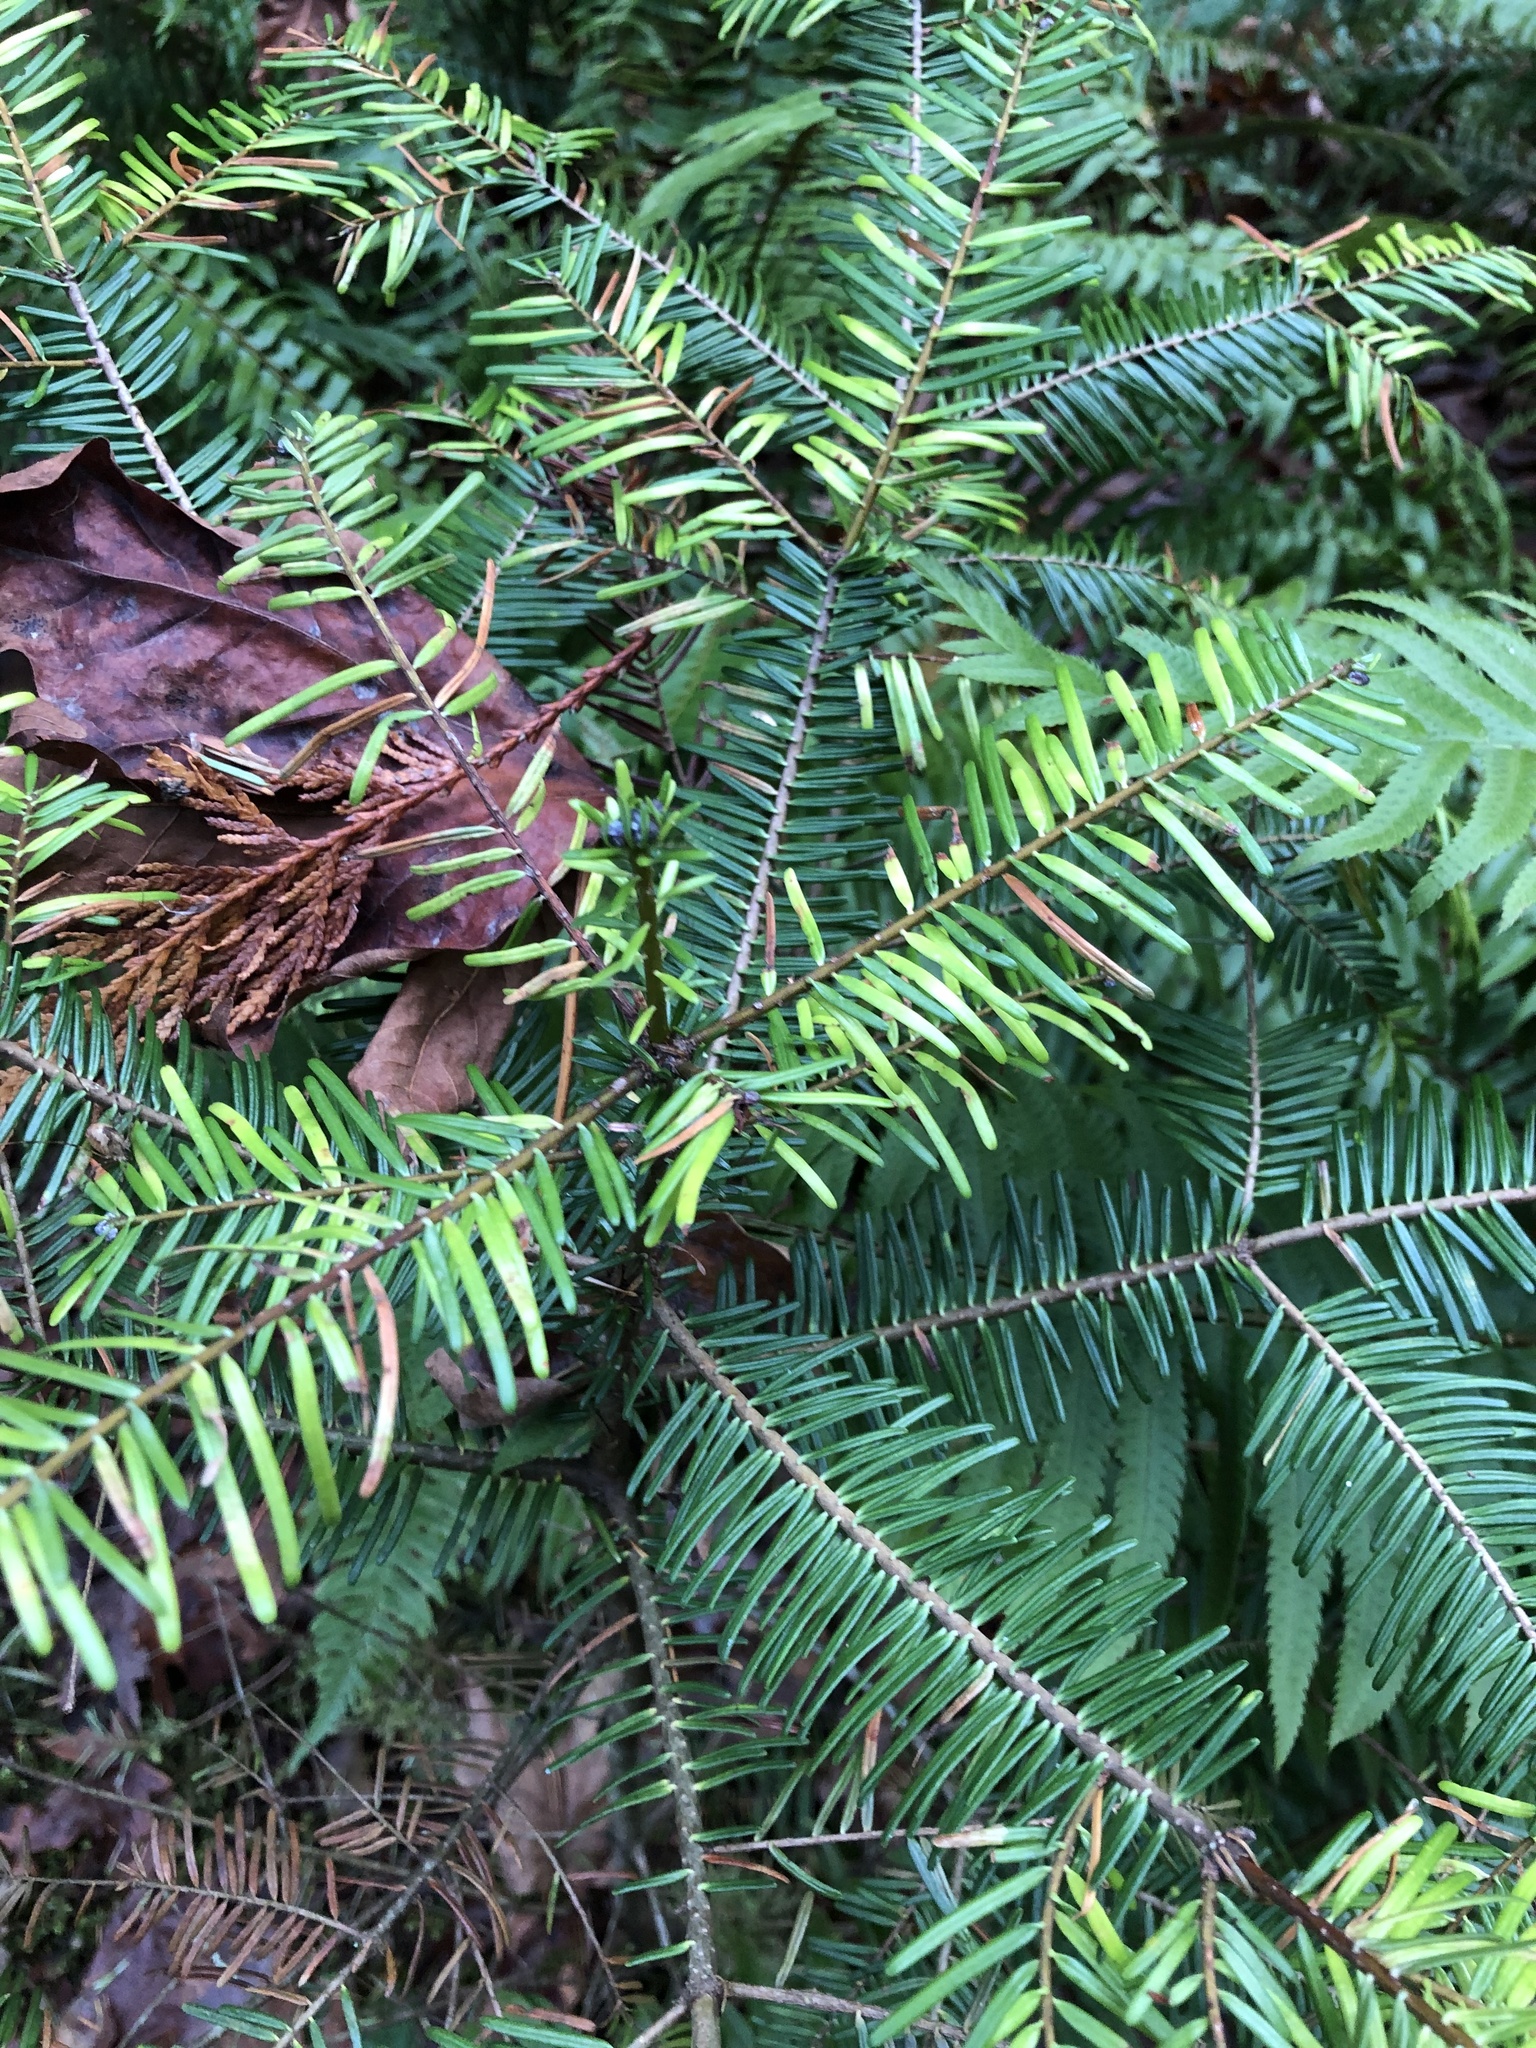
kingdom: Plantae
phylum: Tracheophyta
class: Pinopsida
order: Pinales
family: Pinaceae
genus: Abies
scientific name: Abies grandis
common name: Giant fir
